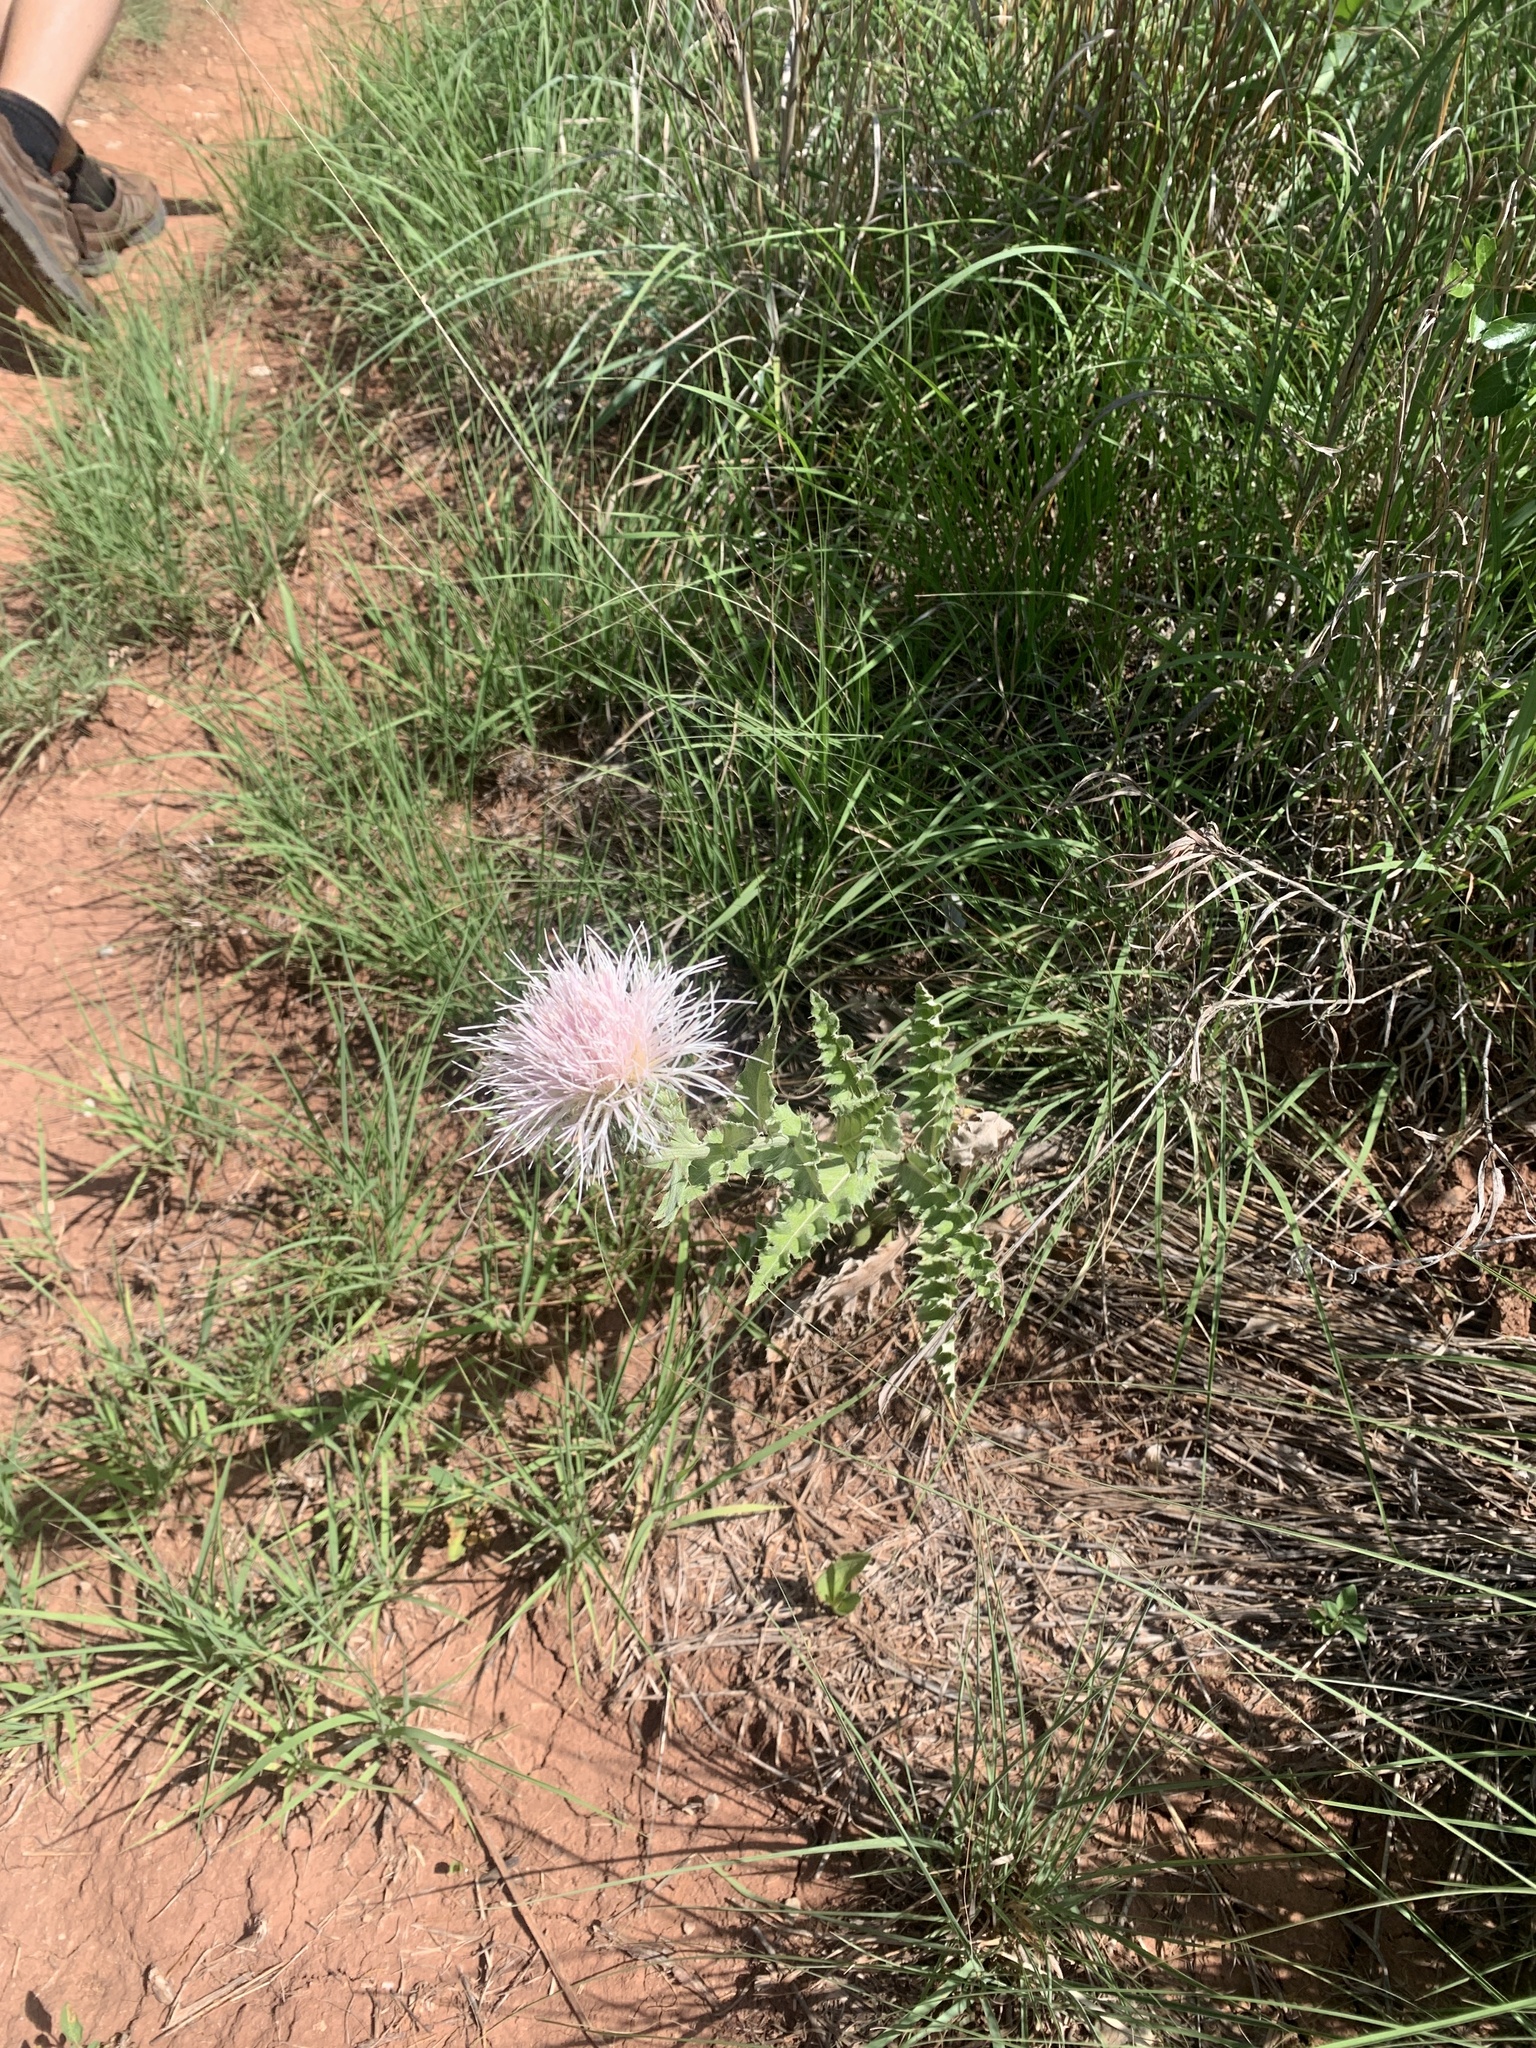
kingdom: Plantae
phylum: Tracheophyta
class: Magnoliopsida
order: Asterales
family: Asteraceae
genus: Cirsium
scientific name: Cirsium undulatum
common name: Pasture thistle
